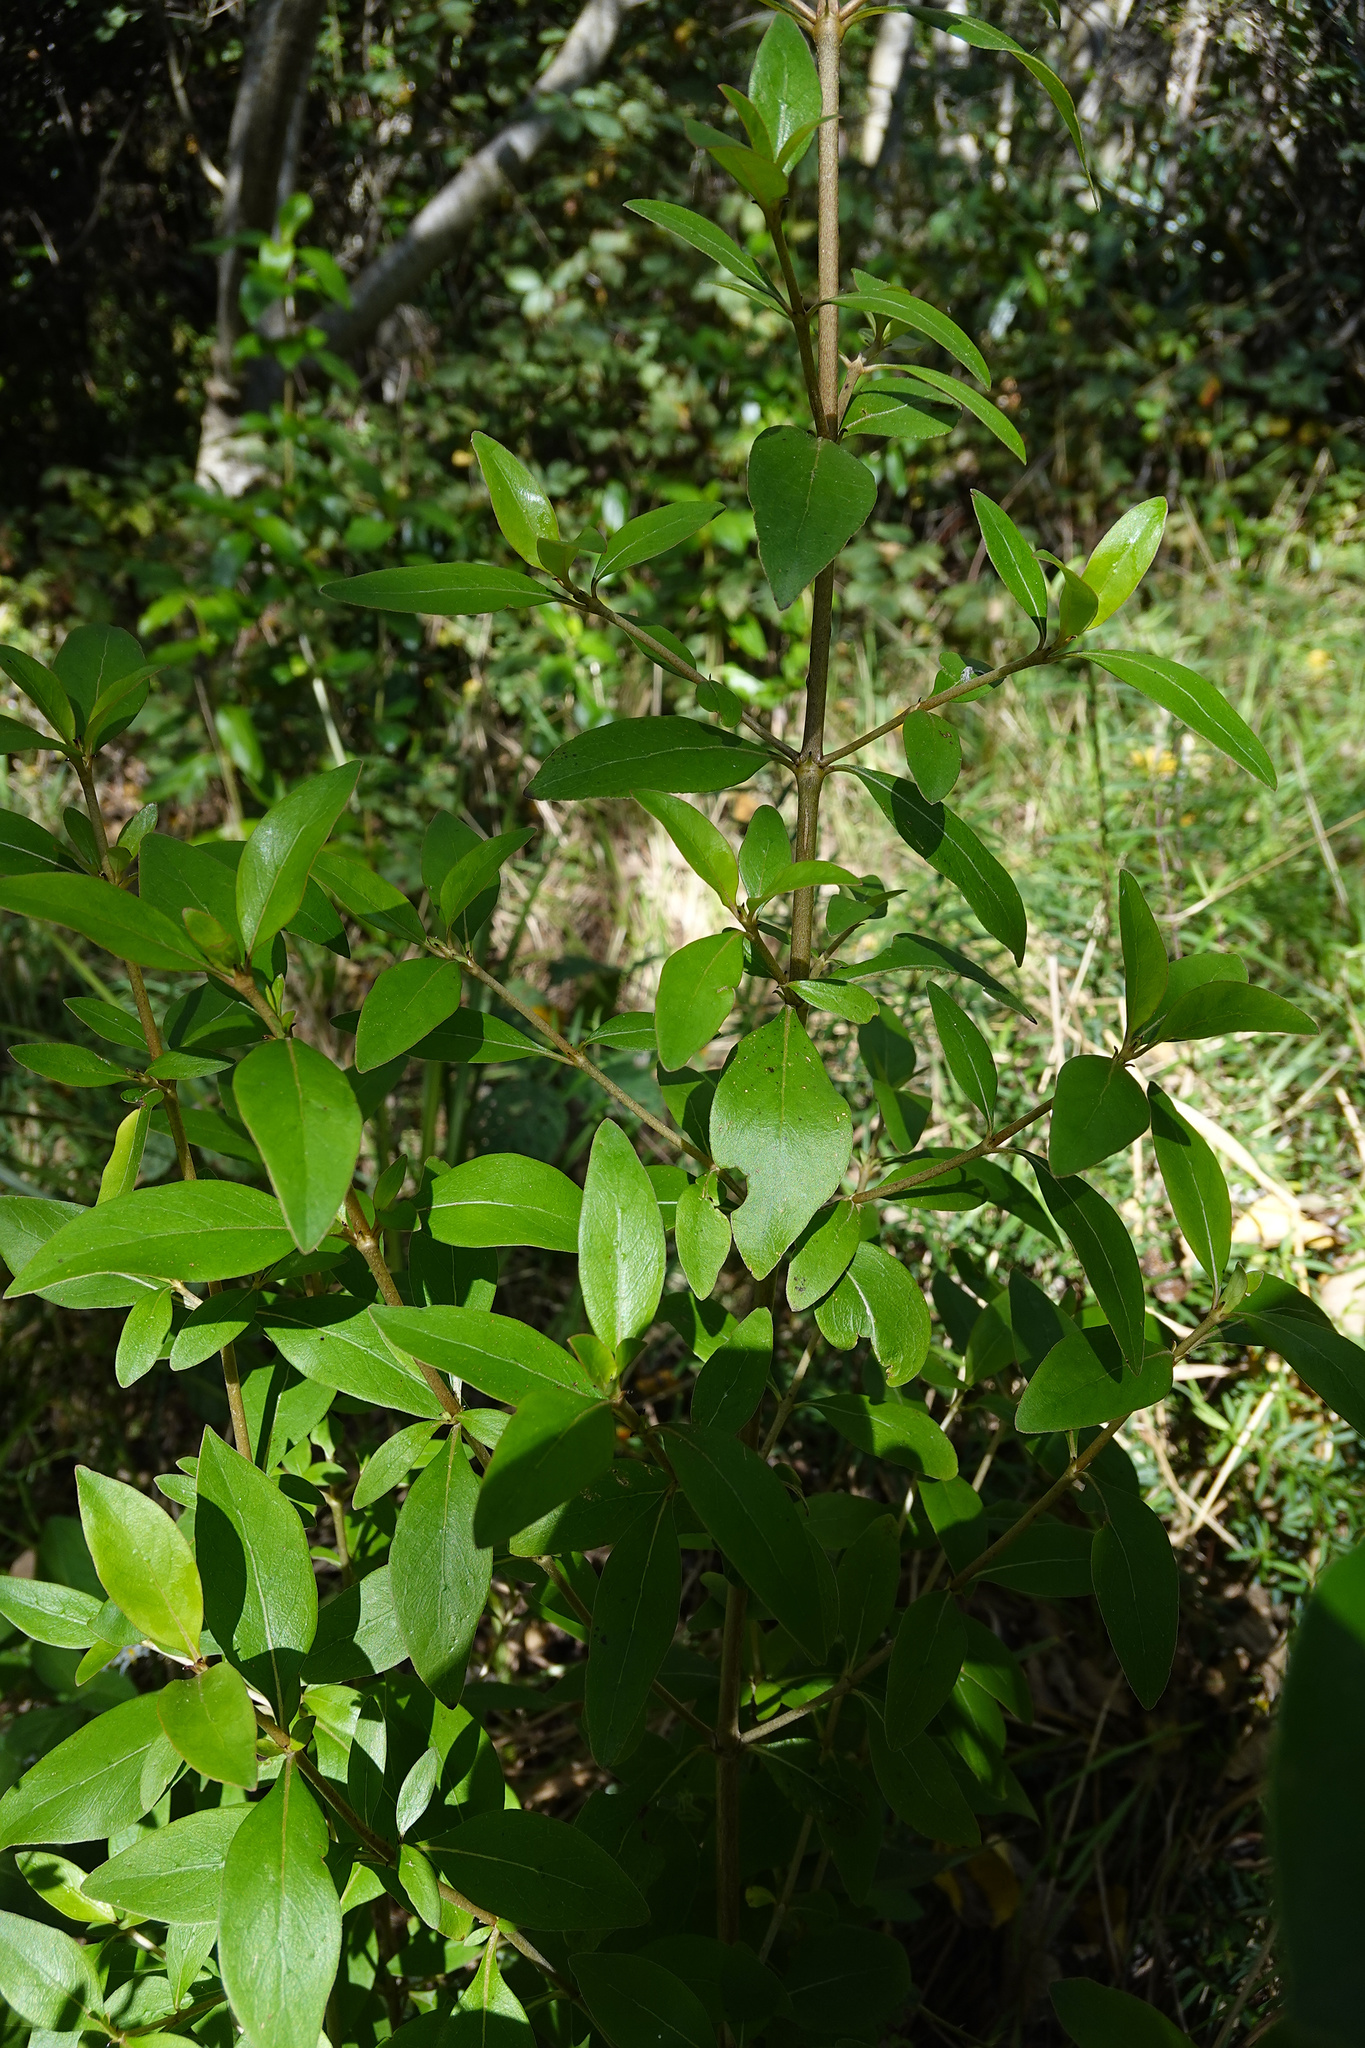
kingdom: Plantae
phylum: Tracheophyta
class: Magnoliopsida
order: Gentianales
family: Rubiaceae
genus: Coprosma
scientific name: Coprosma robusta
